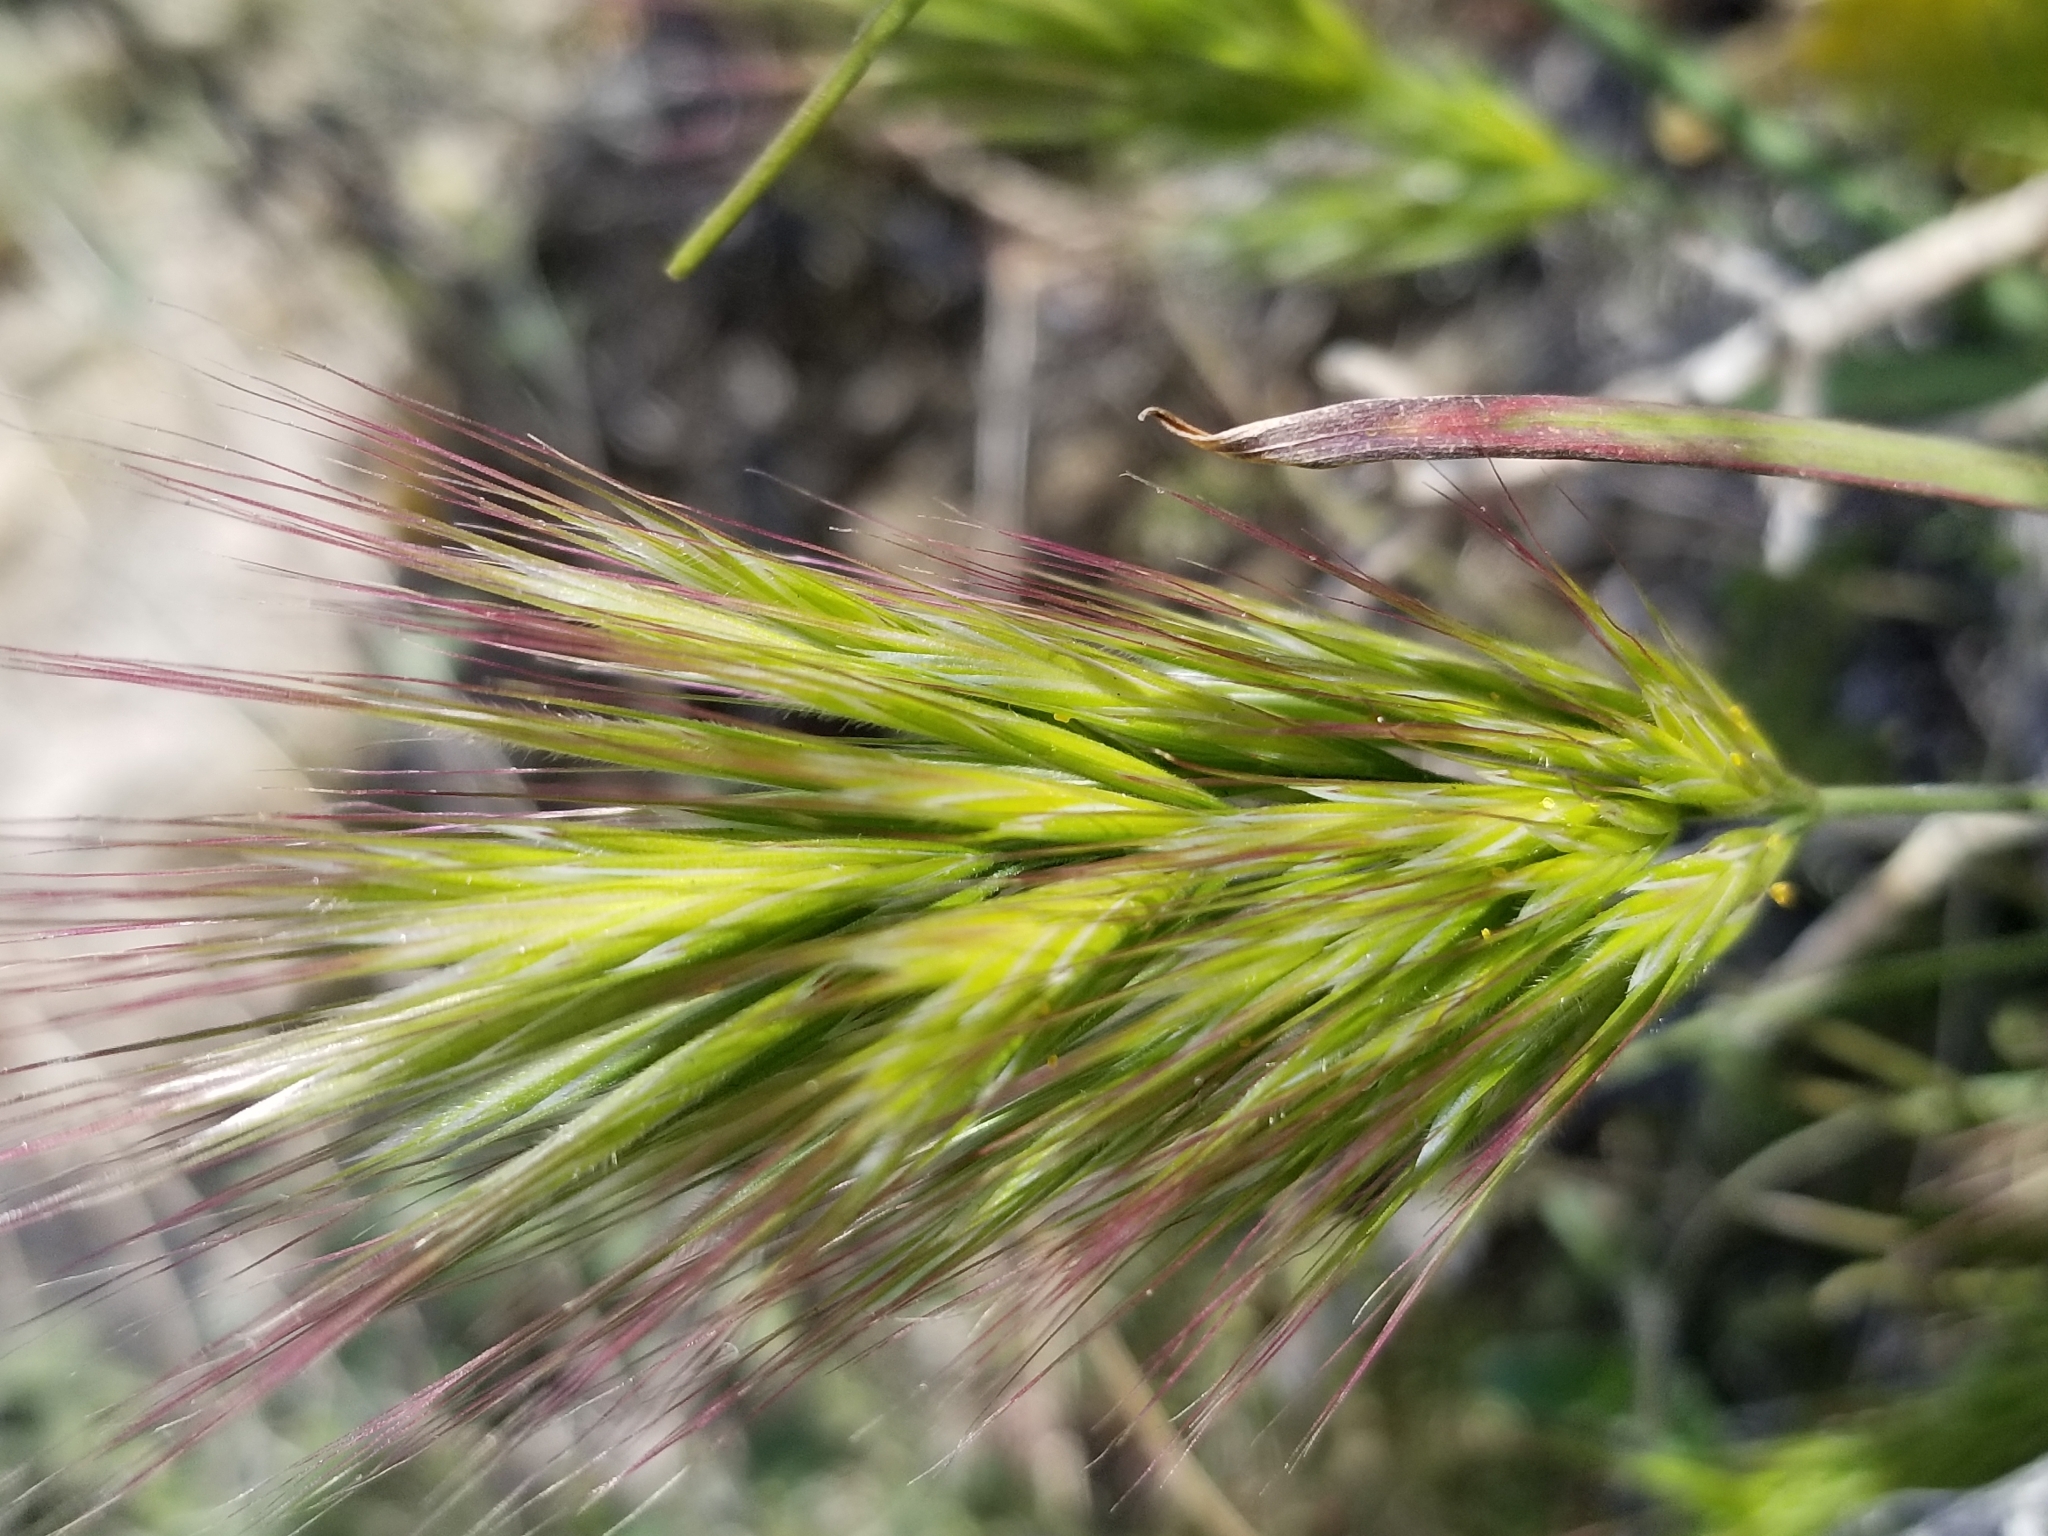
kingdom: Plantae
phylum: Tracheophyta
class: Liliopsida
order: Poales
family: Poaceae
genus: Bromus
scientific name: Bromus rubens
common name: Red brome
